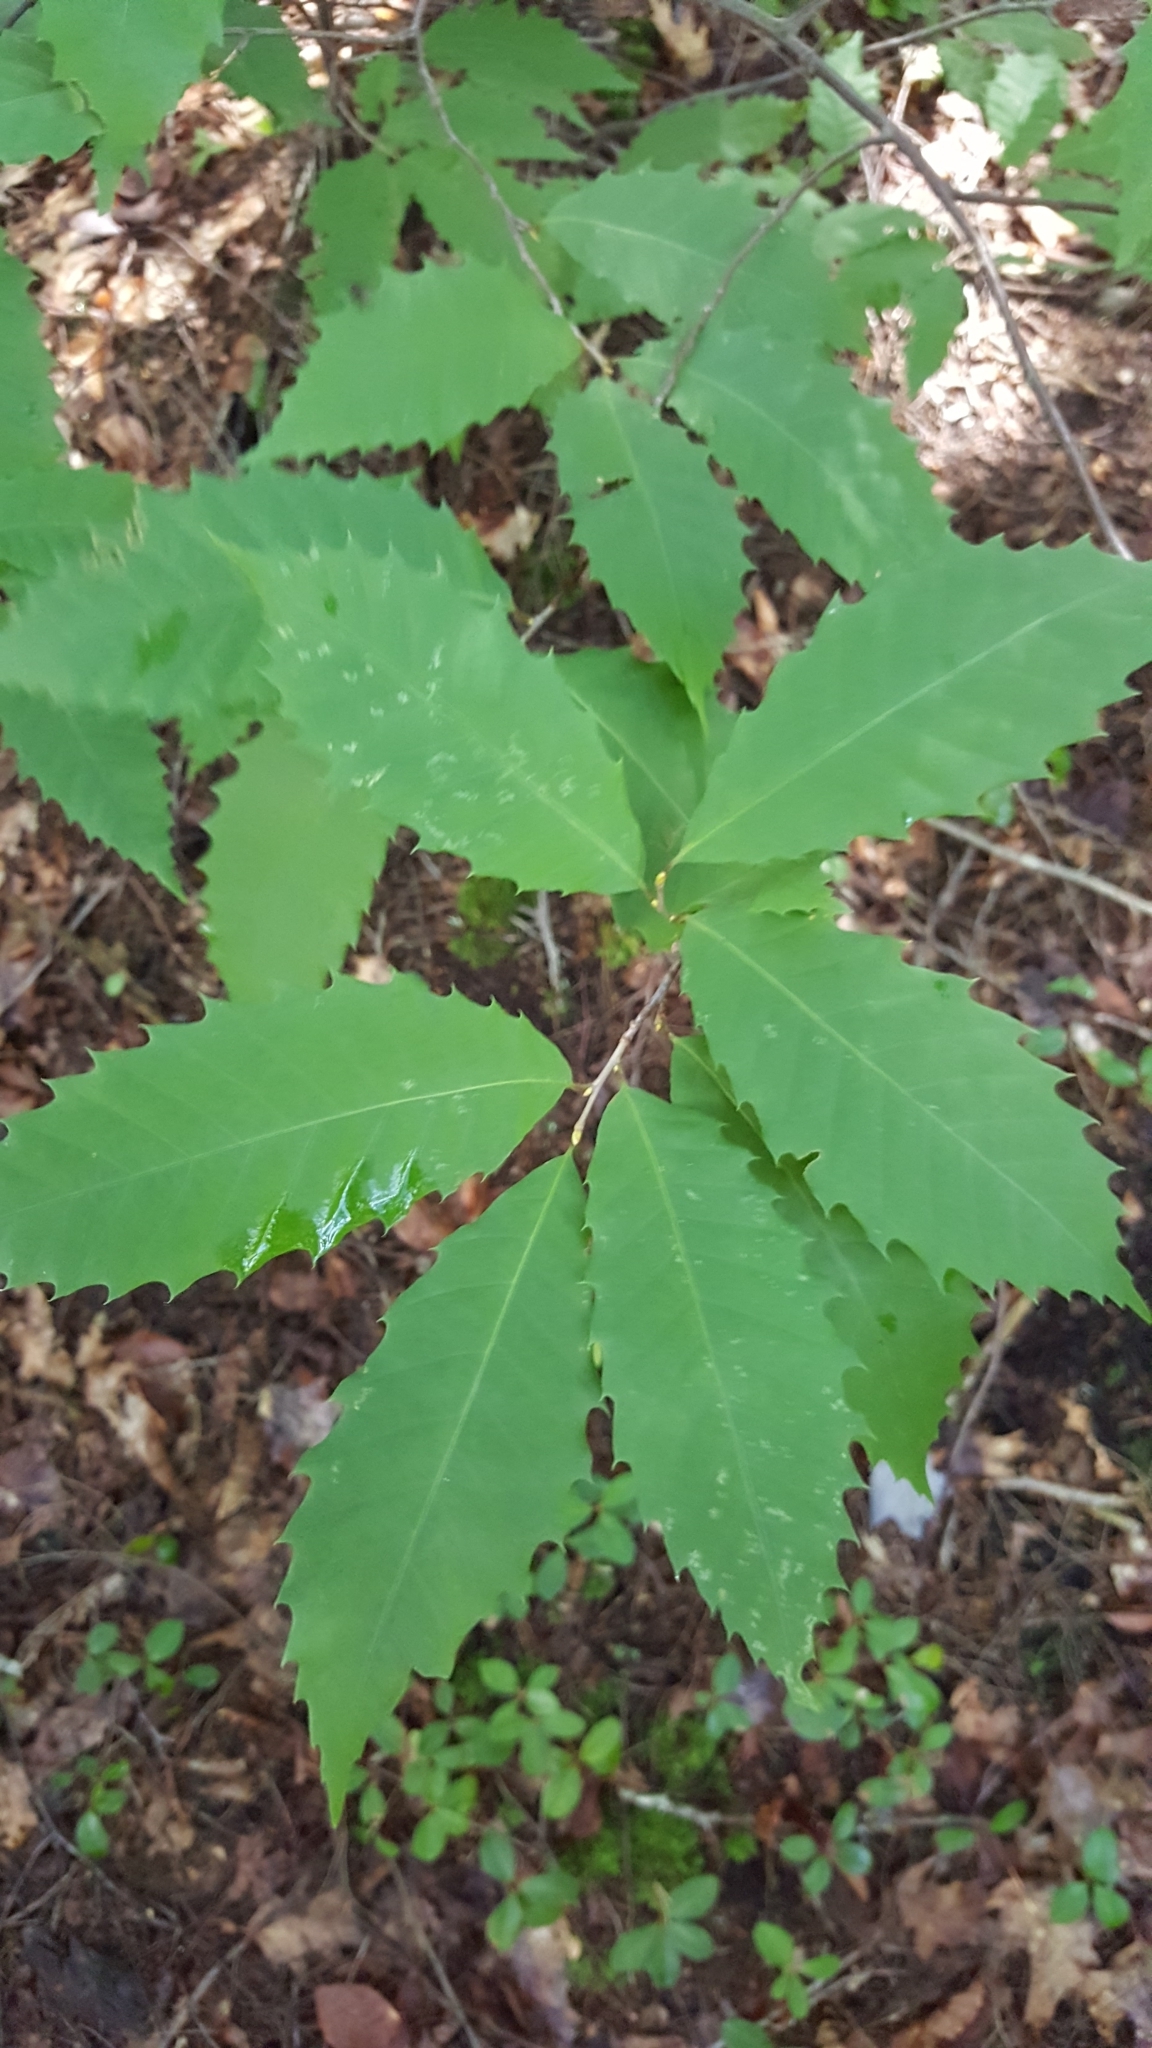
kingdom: Plantae
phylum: Tracheophyta
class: Magnoliopsida
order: Fagales
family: Fagaceae
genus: Castanea
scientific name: Castanea dentata
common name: American chestnut
